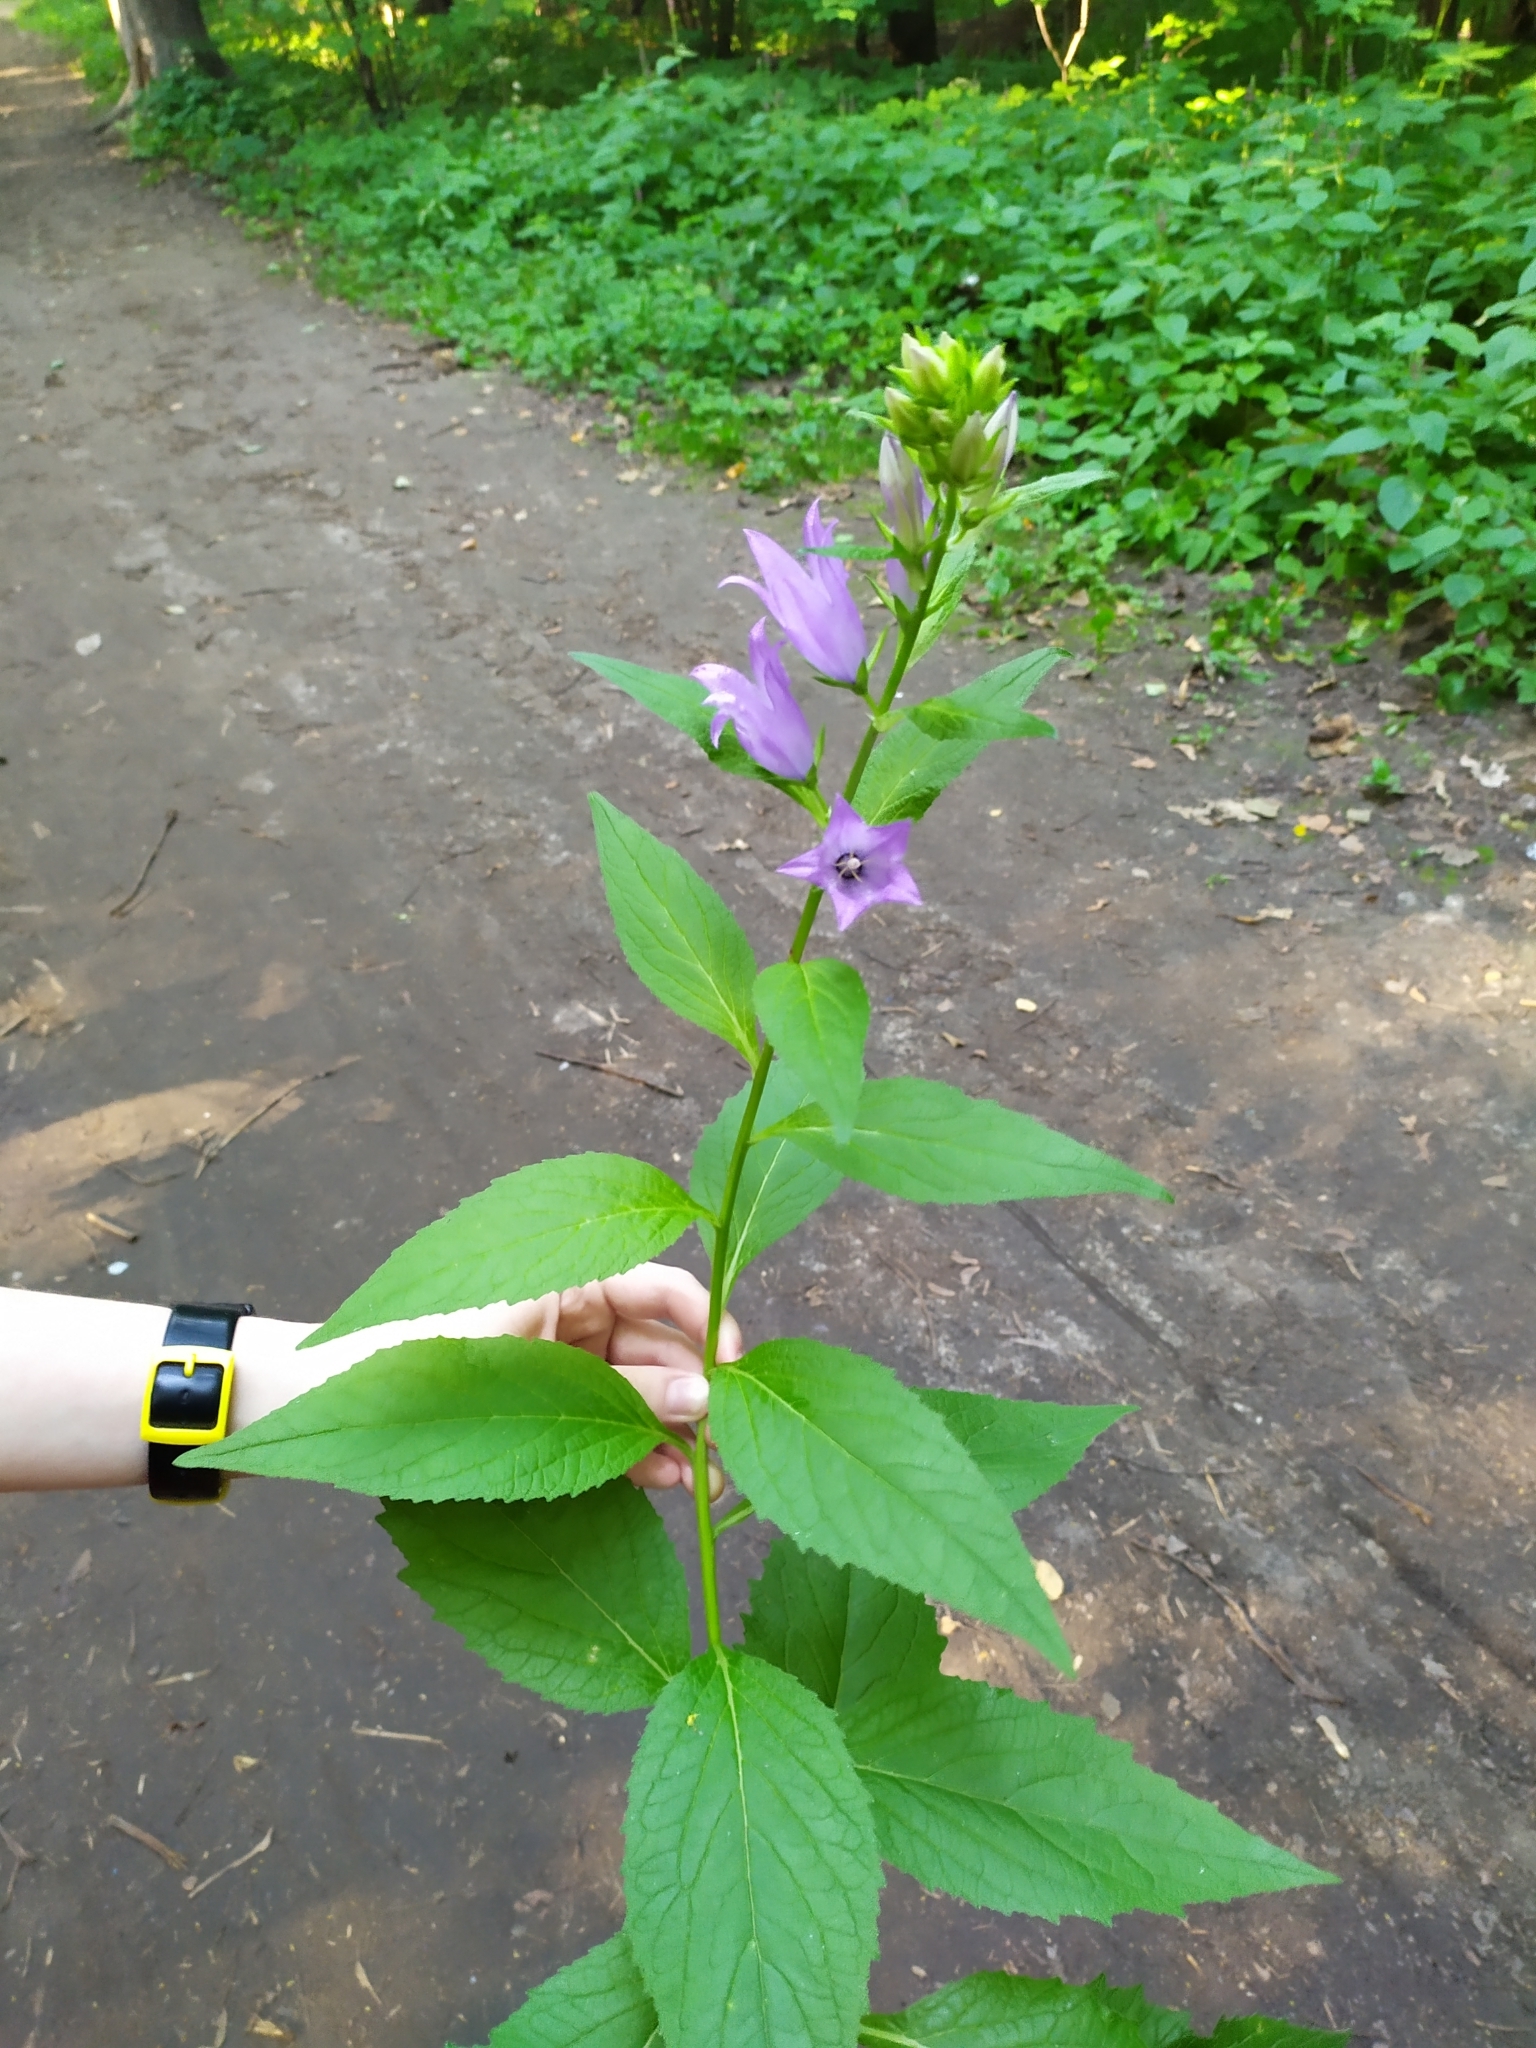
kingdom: Plantae
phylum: Tracheophyta
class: Magnoliopsida
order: Asterales
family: Campanulaceae
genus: Campanula
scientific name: Campanula latifolia
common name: Giant bellflower
